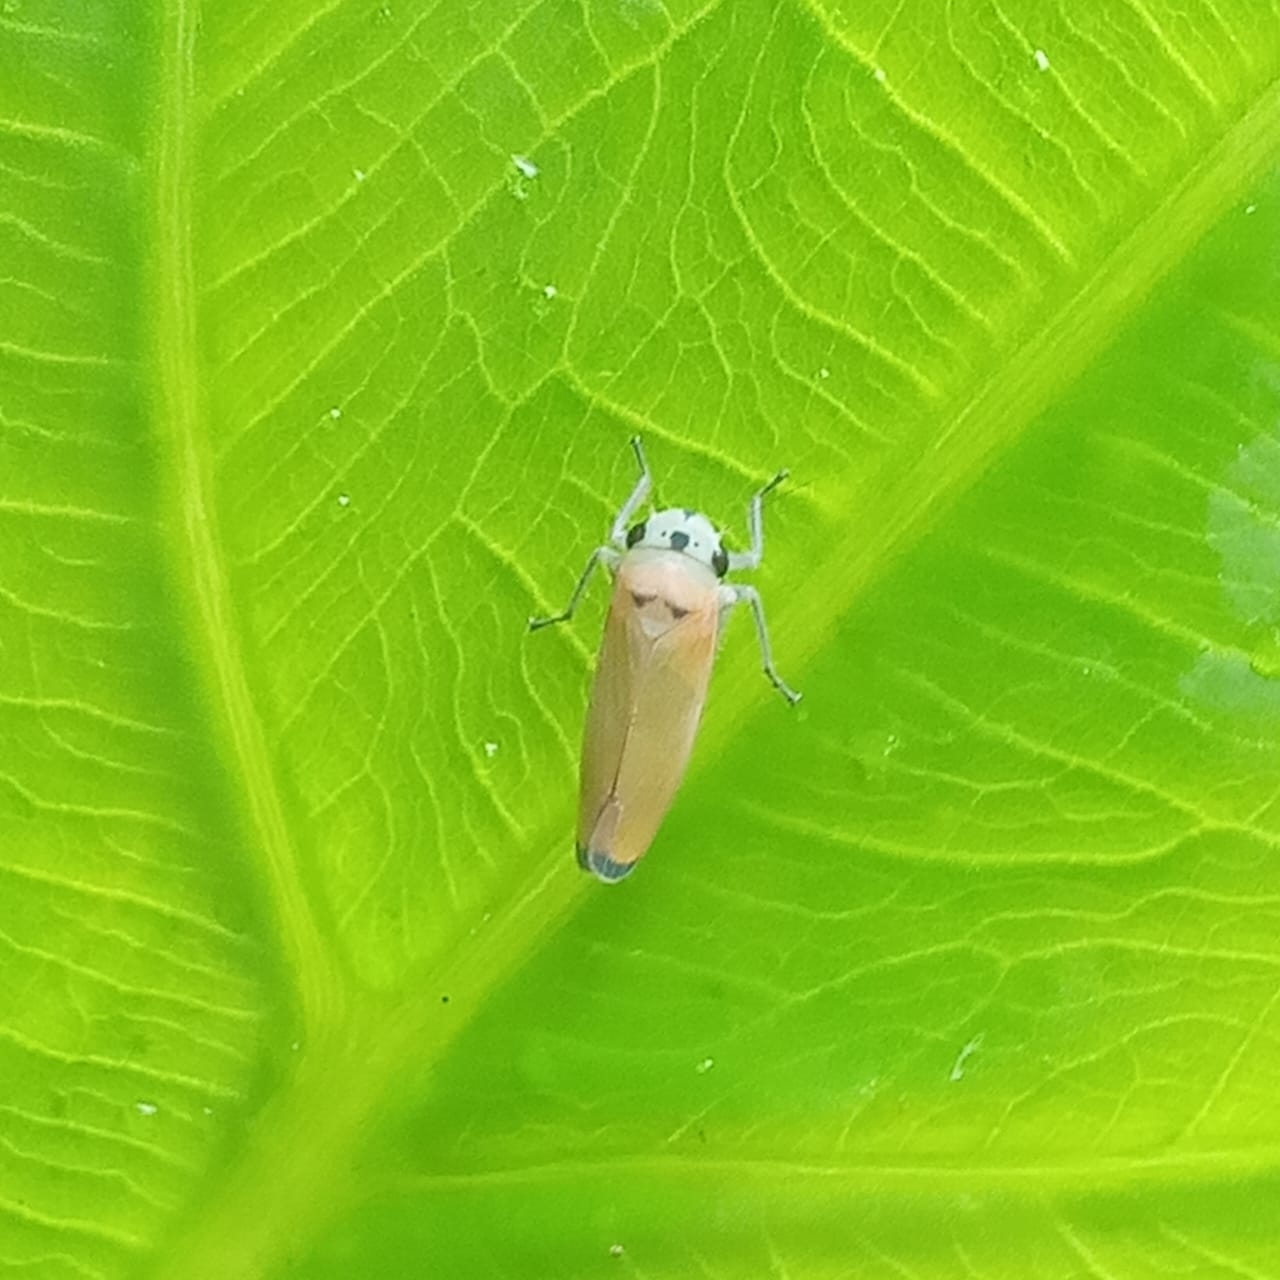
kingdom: Animalia
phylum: Arthropoda
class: Insecta
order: Hemiptera
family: Cicadellidae
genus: Stehlikiana
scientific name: Stehlikiana ramirezi
